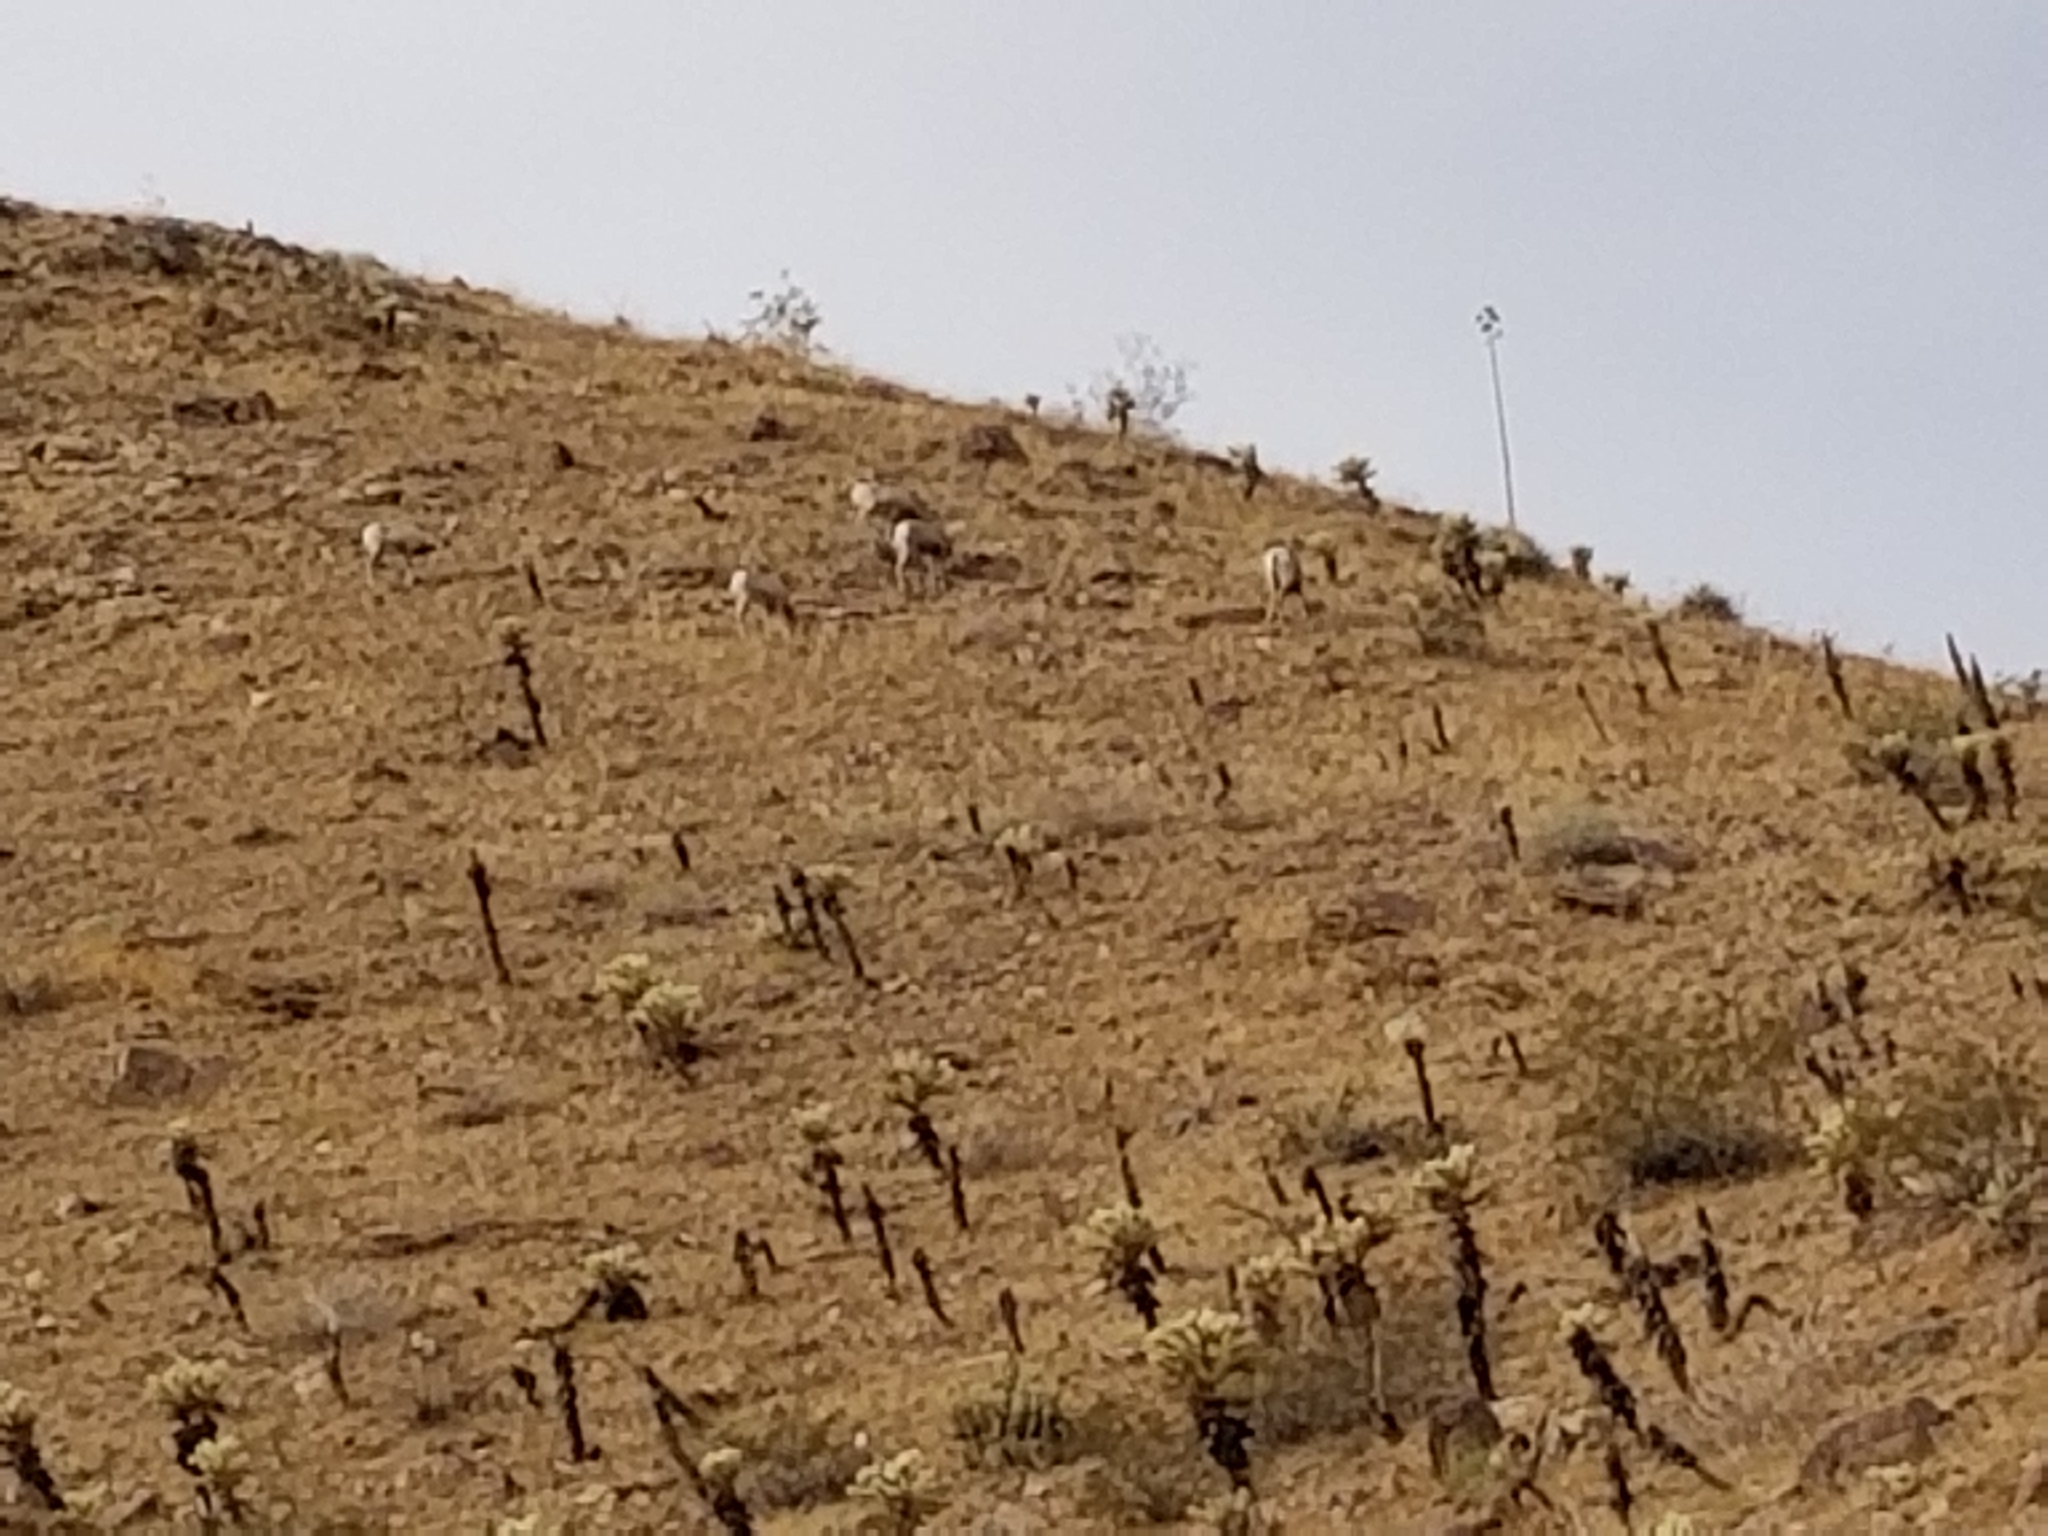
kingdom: Animalia
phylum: Chordata
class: Mammalia
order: Artiodactyla
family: Bovidae
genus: Ovis
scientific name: Ovis canadensis
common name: Bighorn sheep
